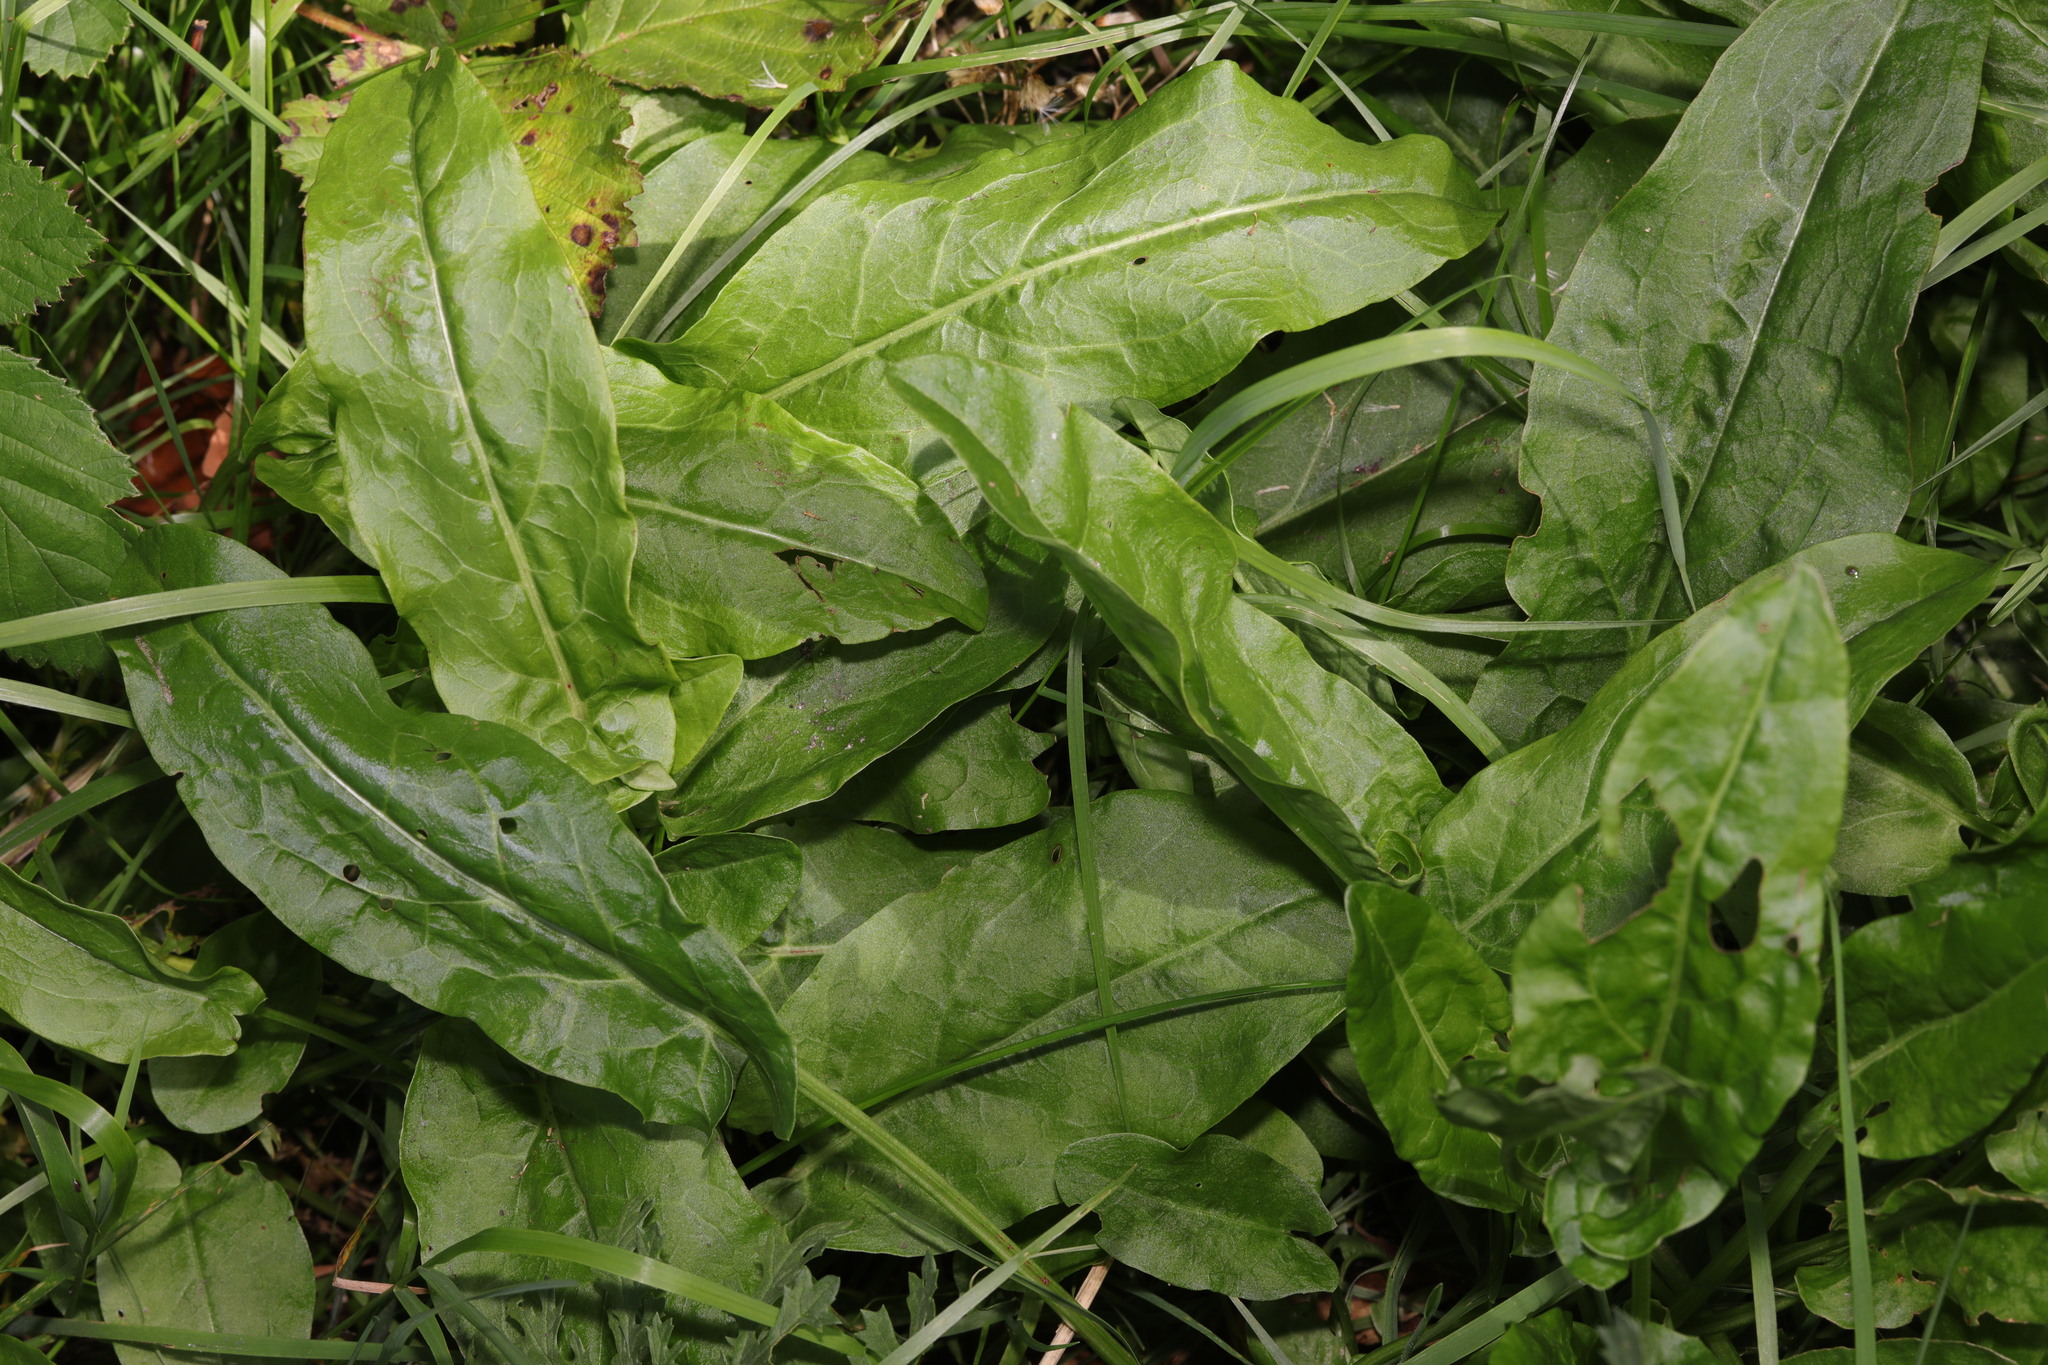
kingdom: Plantae
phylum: Tracheophyta
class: Magnoliopsida
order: Caryophyllales
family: Polygonaceae
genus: Rumex
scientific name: Rumex acetosa
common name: Garden sorrel
